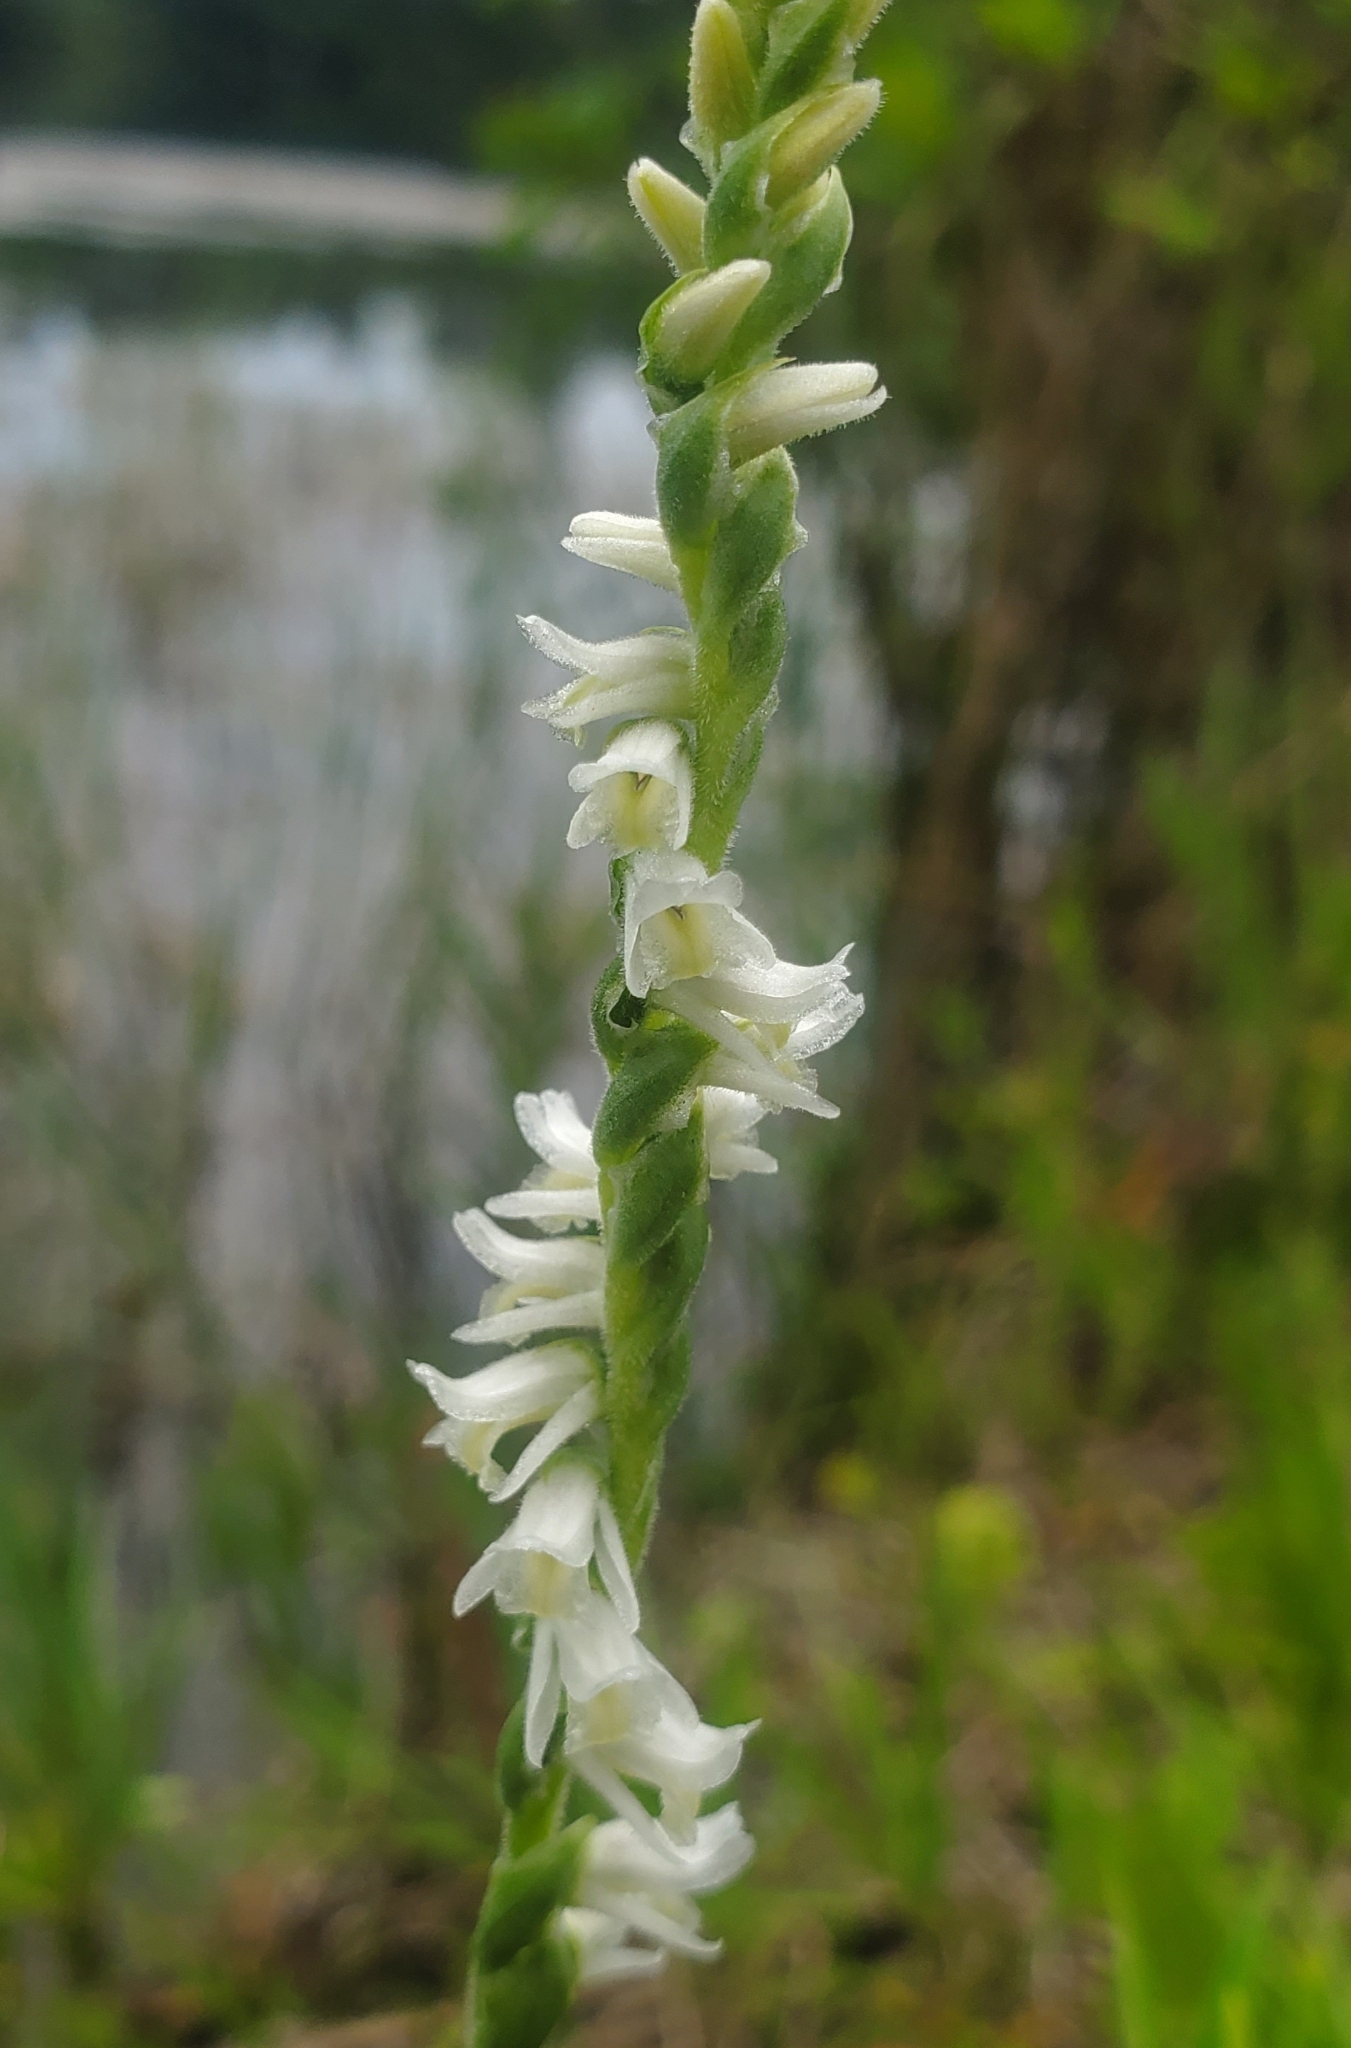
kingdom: Plantae
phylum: Tracheophyta
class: Liliopsida
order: Asparagales
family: Orchidaceae
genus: Spiranthes
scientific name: Spiranthes vernalis
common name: Spring ladies'-tresses
